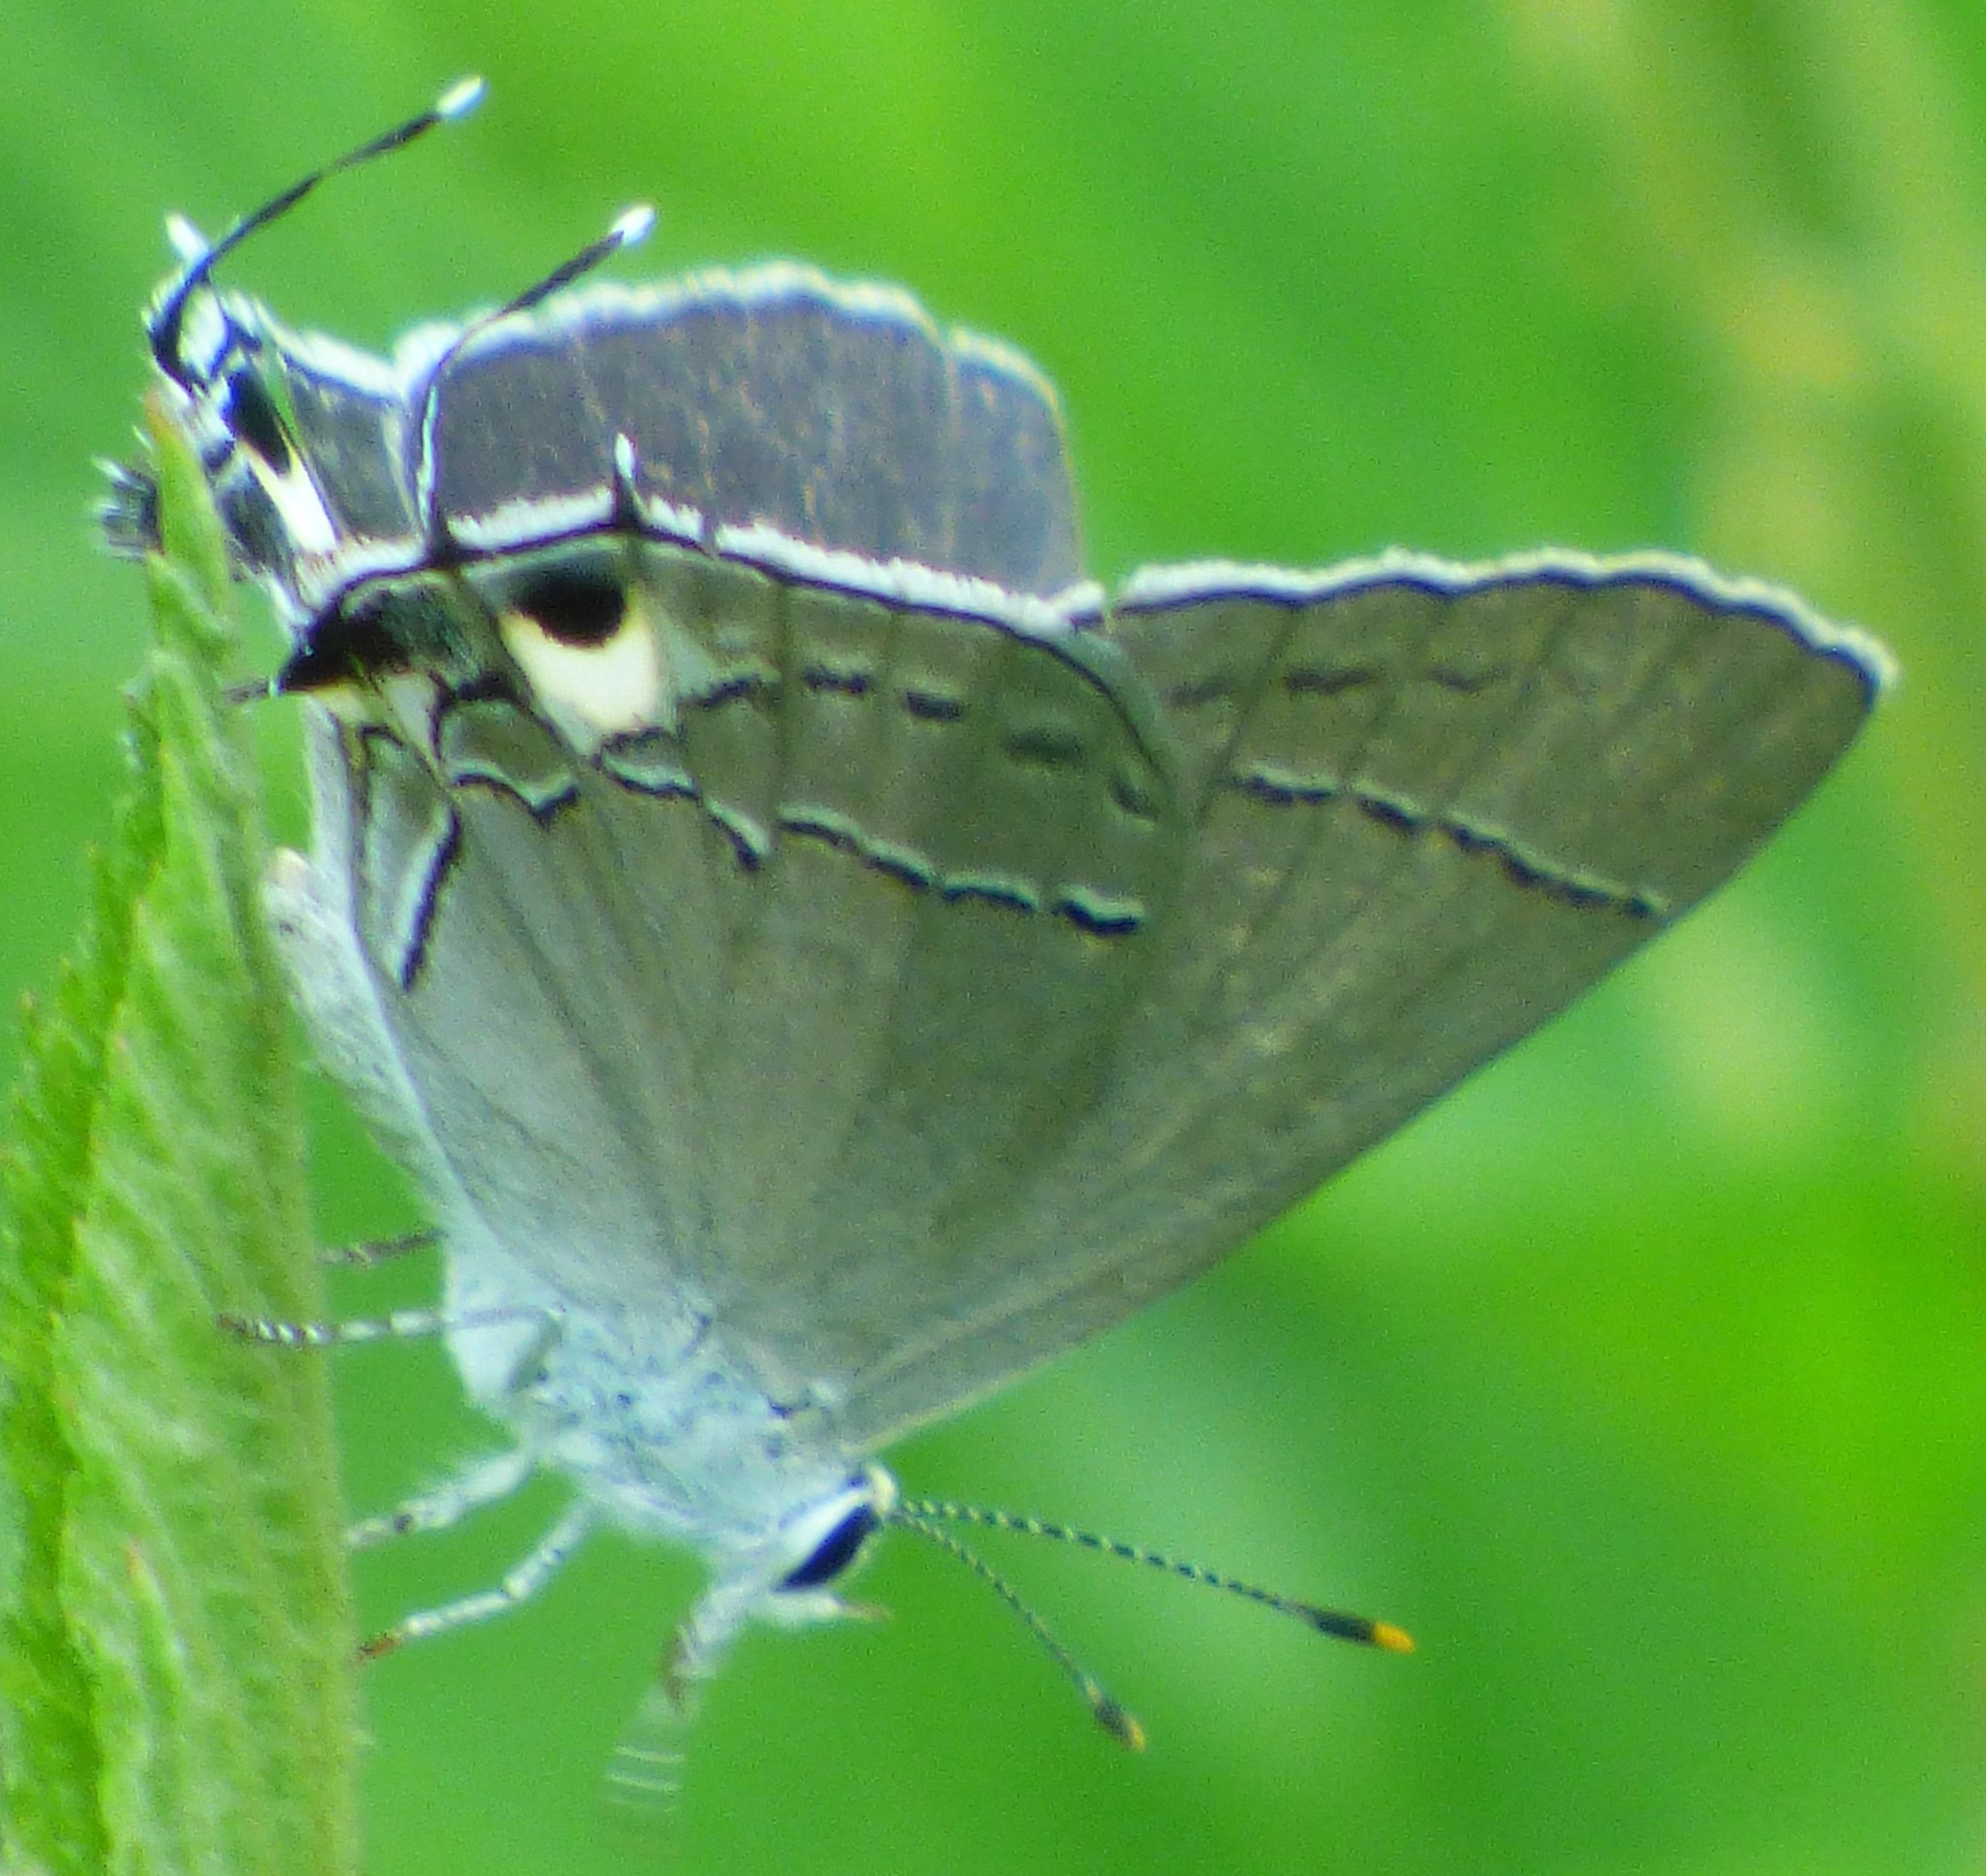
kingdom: Animalia
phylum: Arthropoda
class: Insecta
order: Lepidoptera
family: Lycaenidae
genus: Strymon
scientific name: Strymon melinus
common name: Gray hairstreak
